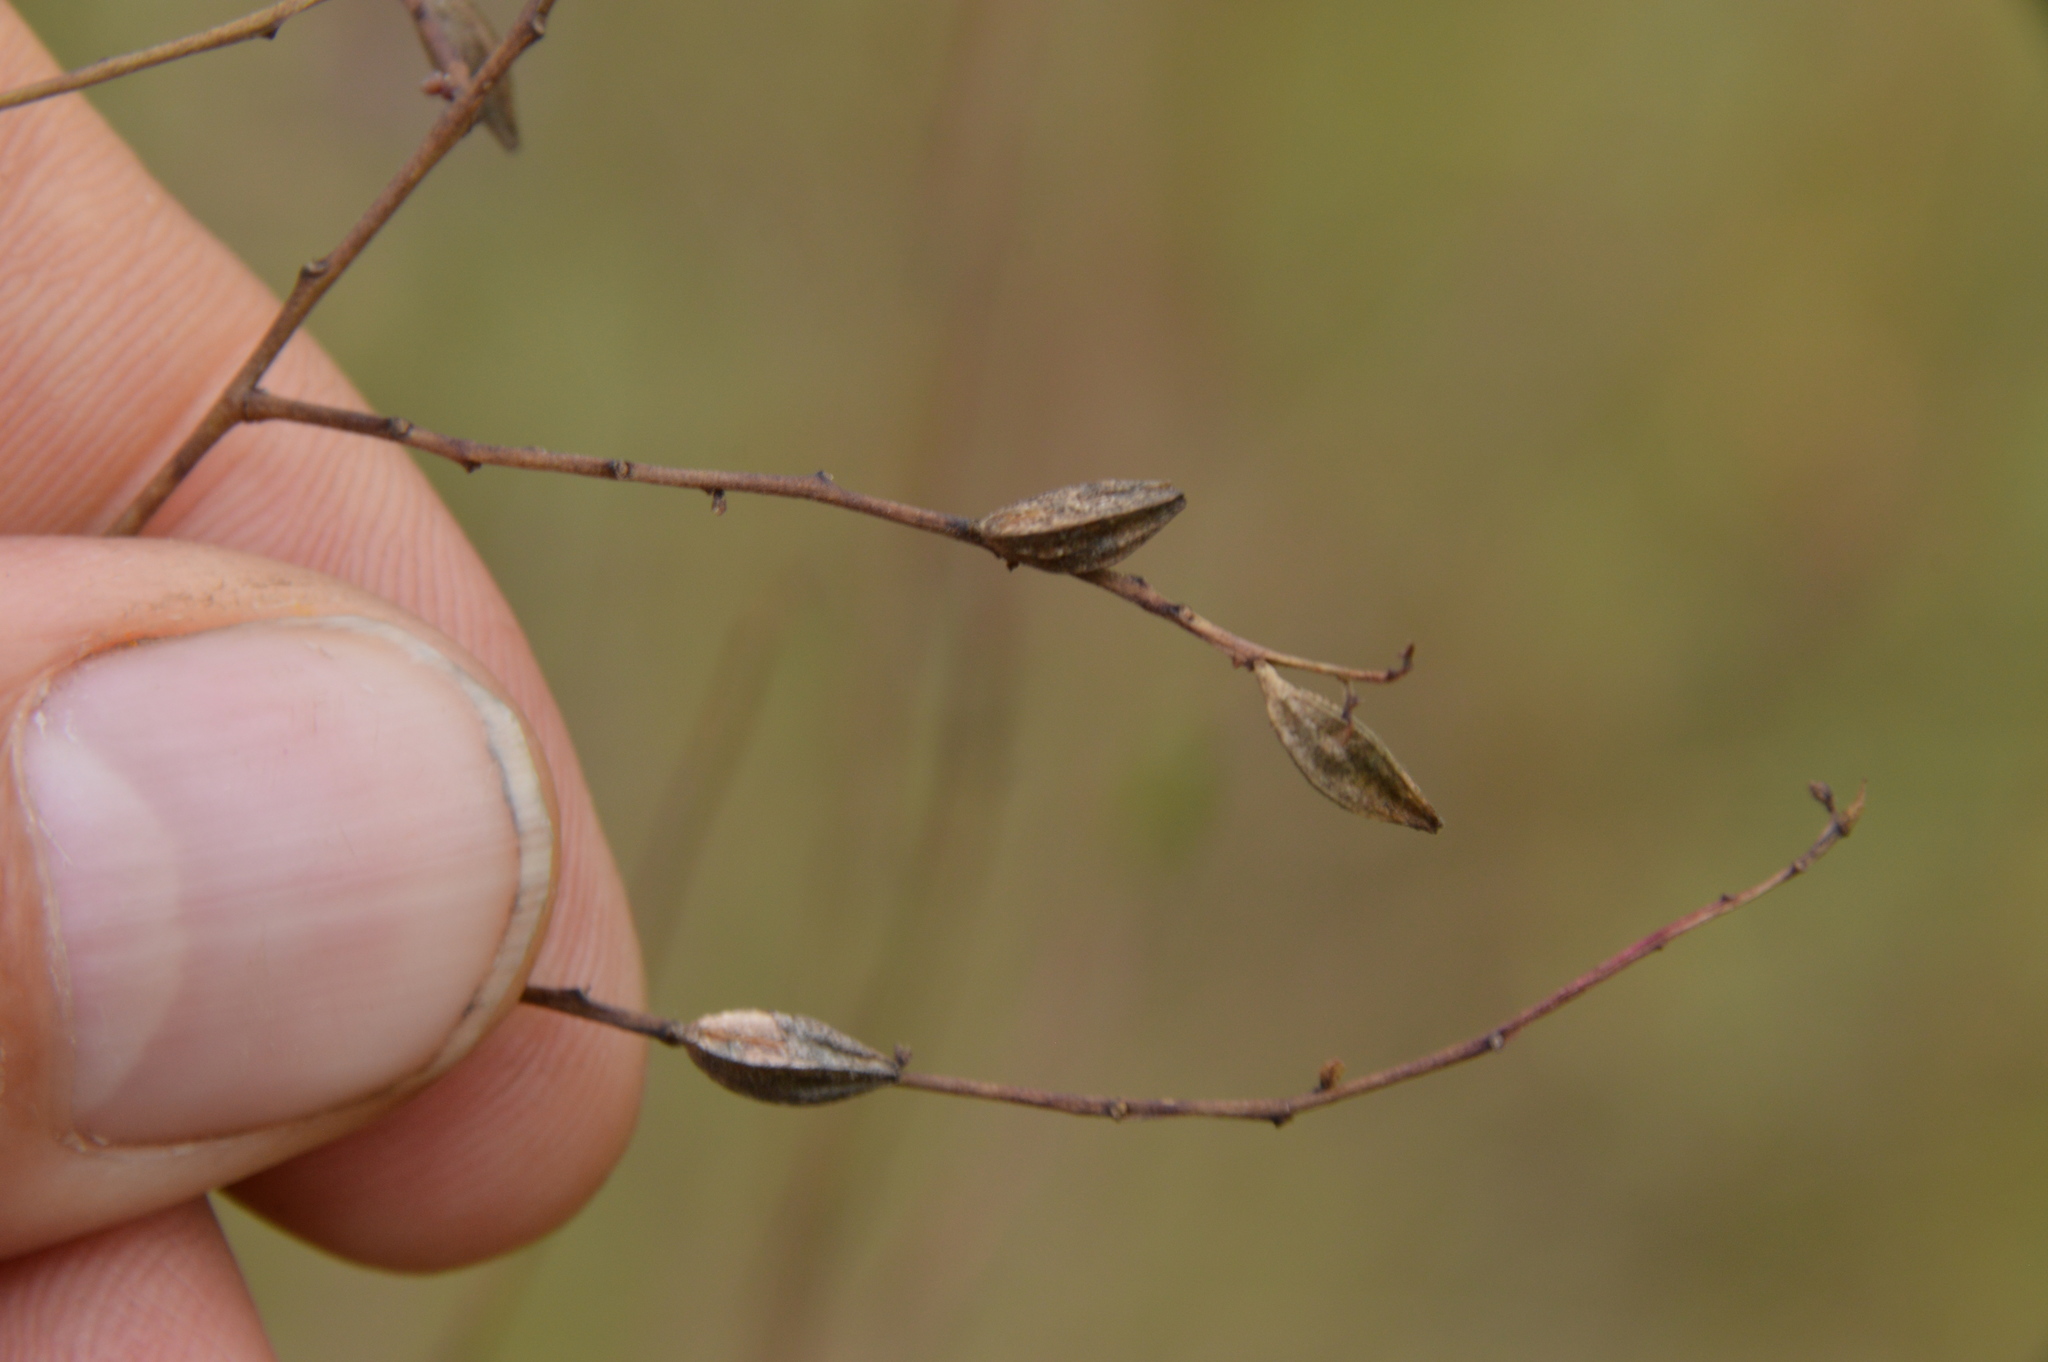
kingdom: Plantae
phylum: Tracheophyta
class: Magnoliopsida
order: Myrtales
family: Onagraceae
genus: Oenothera
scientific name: Oenothera lindheimeri
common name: Lindheimer's beeblossom
